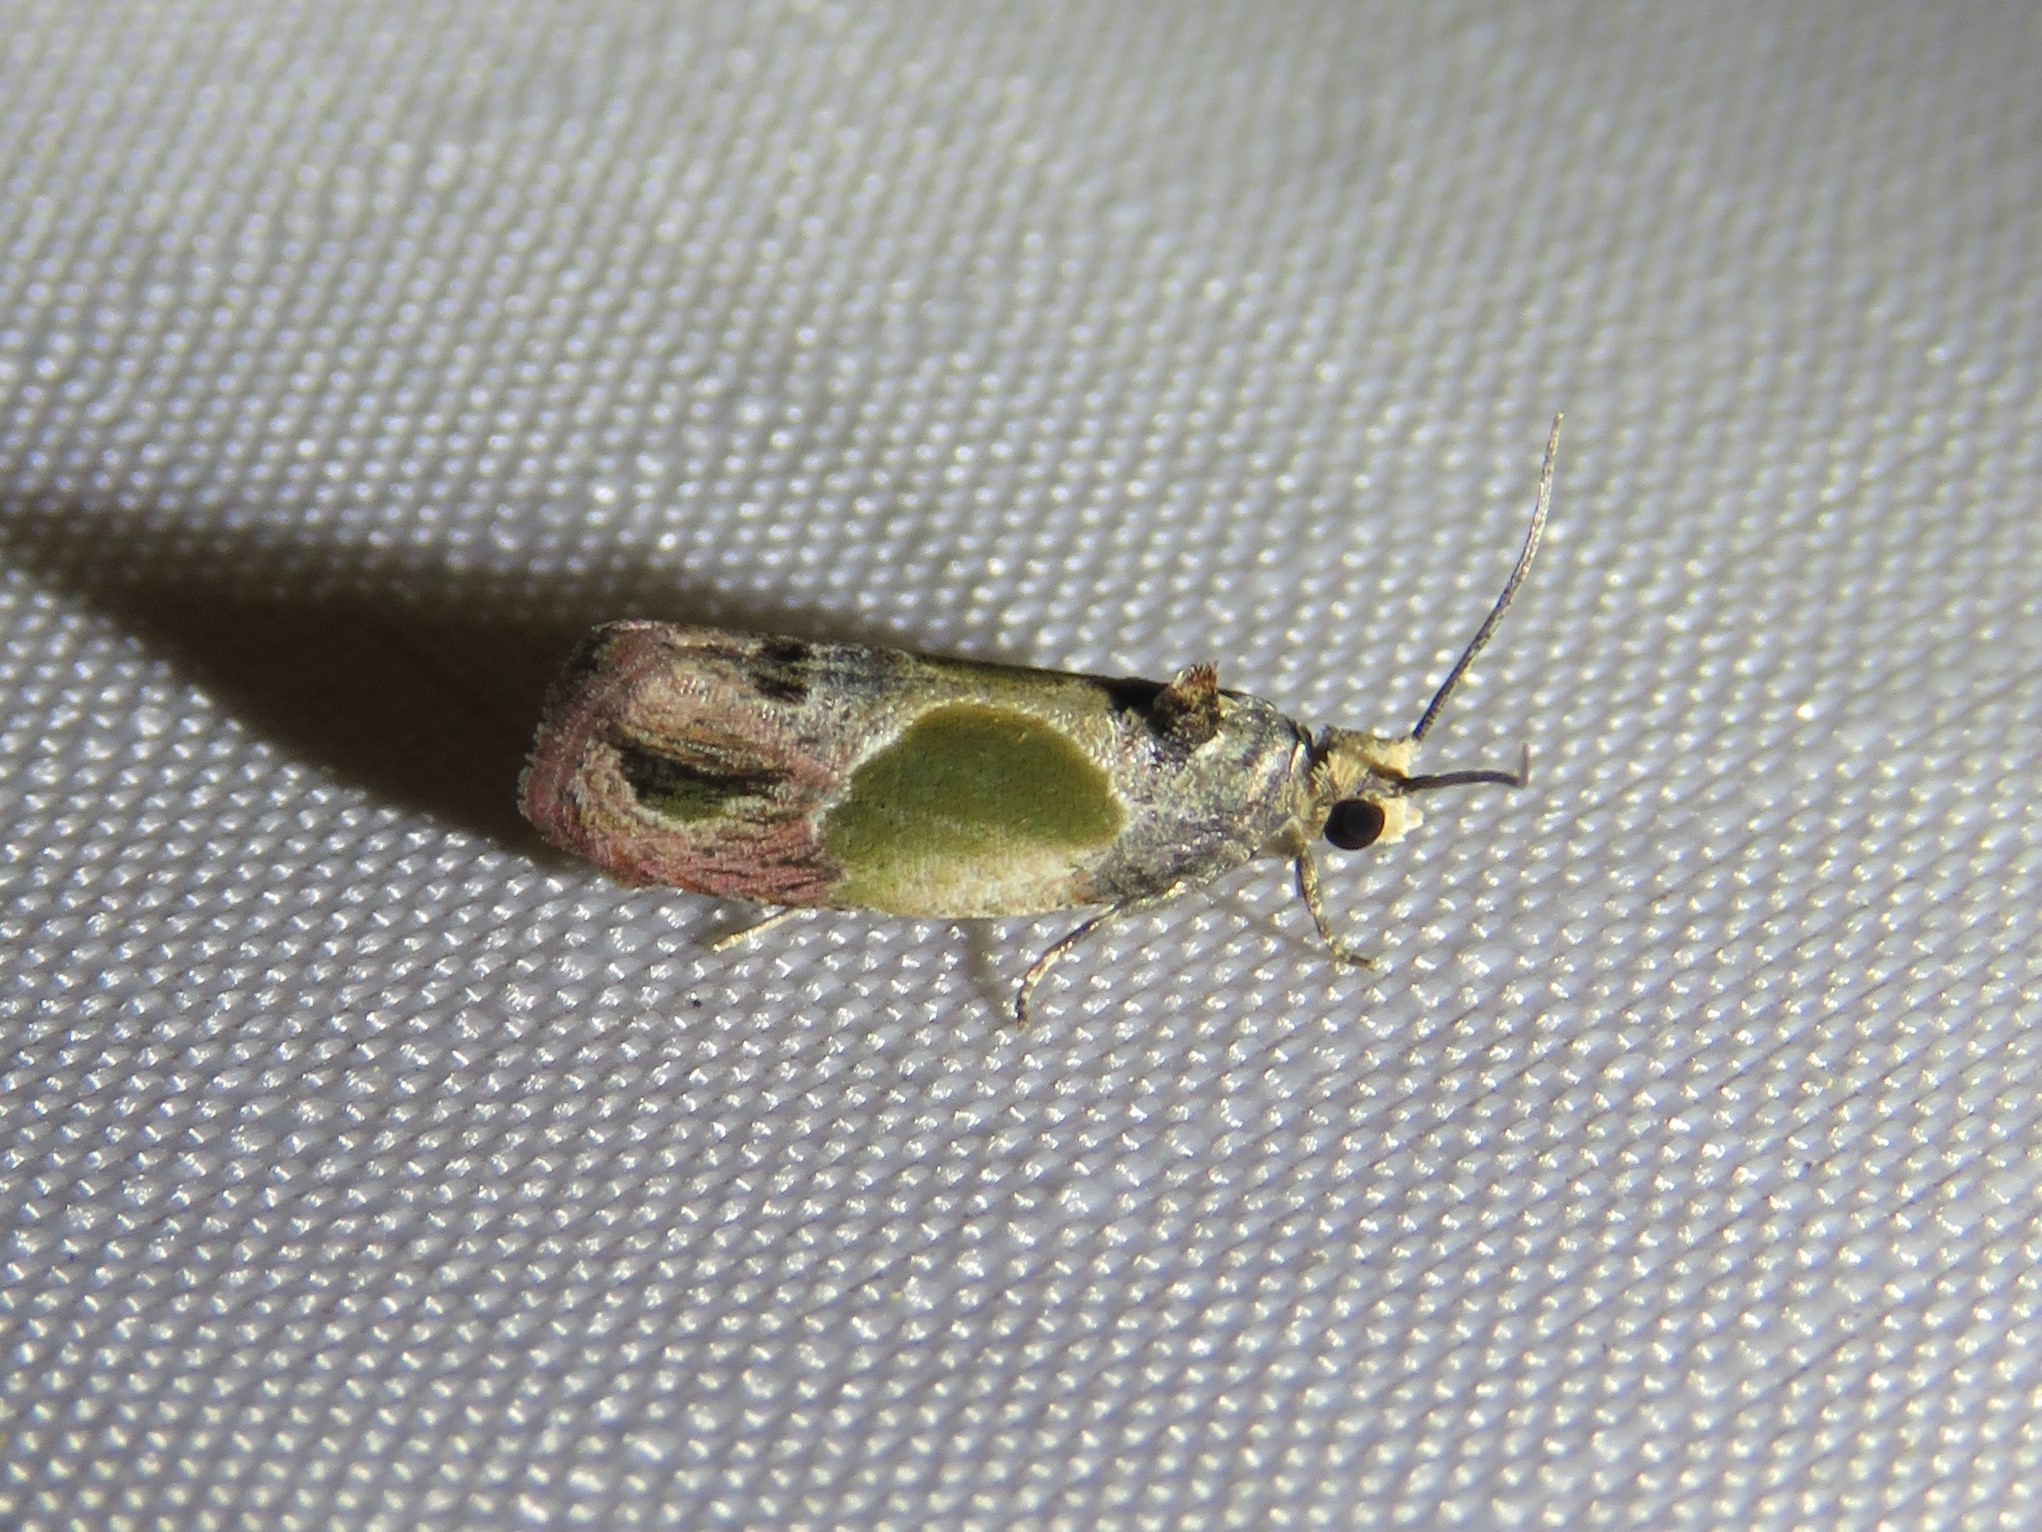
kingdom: Animalia
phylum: Arthropoda
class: Insecta
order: Lepidoptera
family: Tortricidae
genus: Eumarozia
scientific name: Eumarozia malachitana
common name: Sculptured moth
